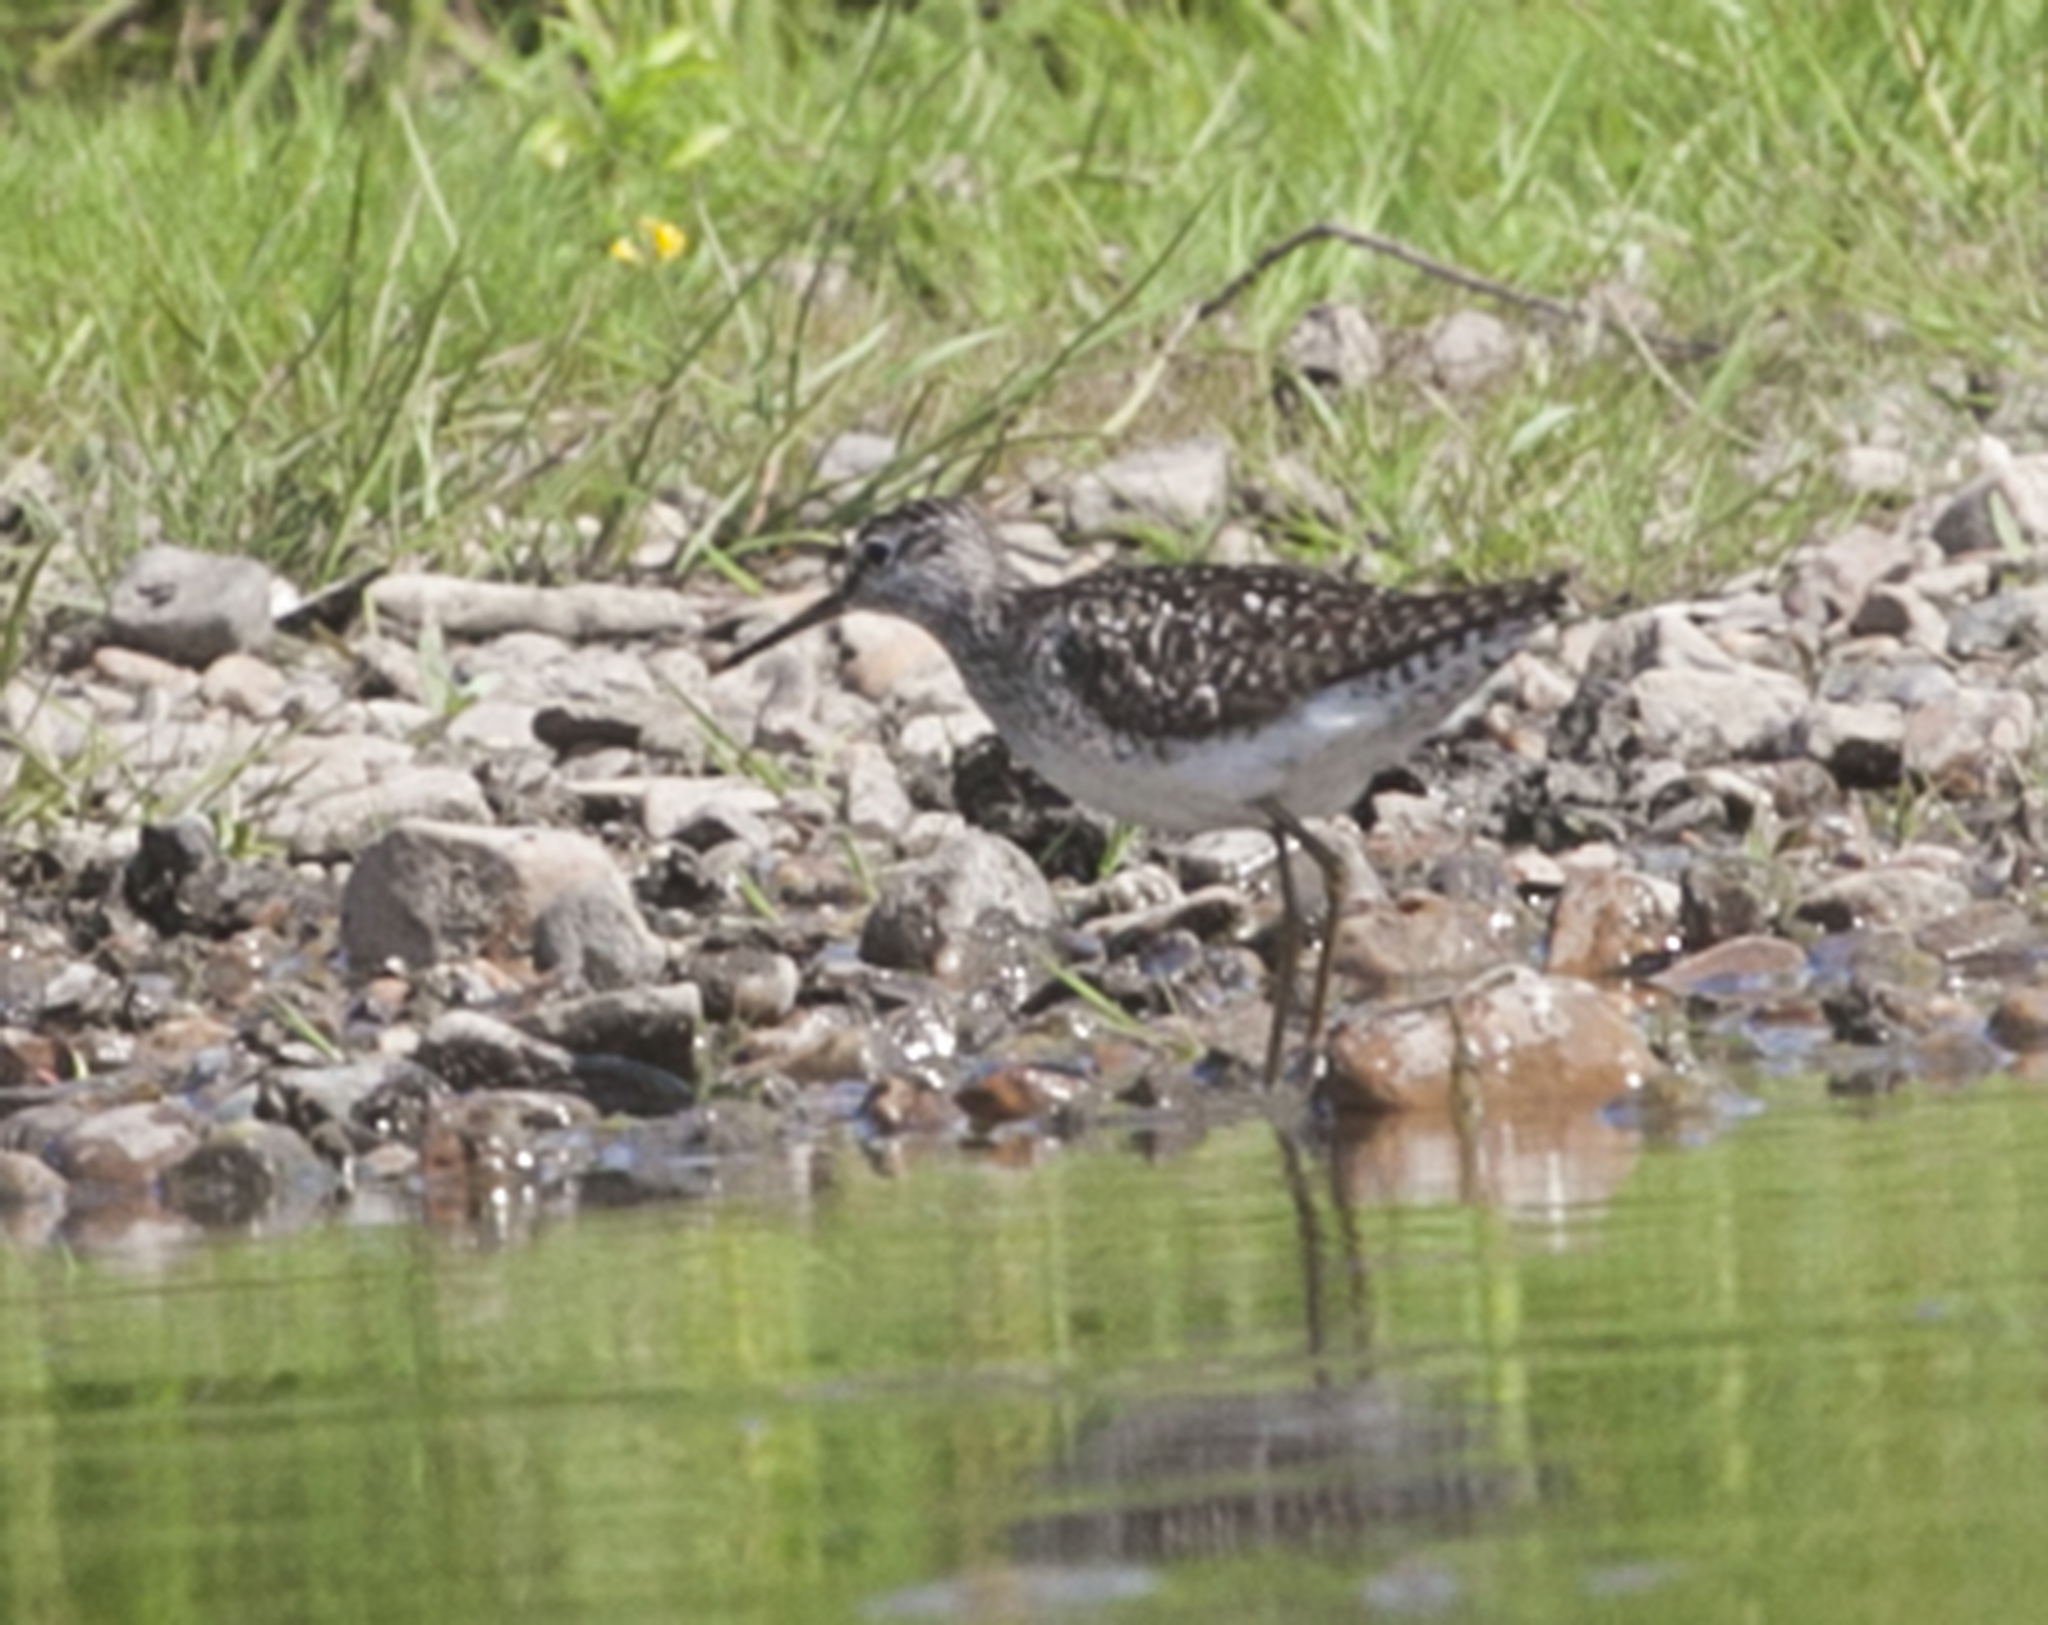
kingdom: Animalia
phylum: Chordata
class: Aves
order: Charadriiformes
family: Scolopacidae
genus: Tringa
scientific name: Tringa glareola
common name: Wood sandpiper
